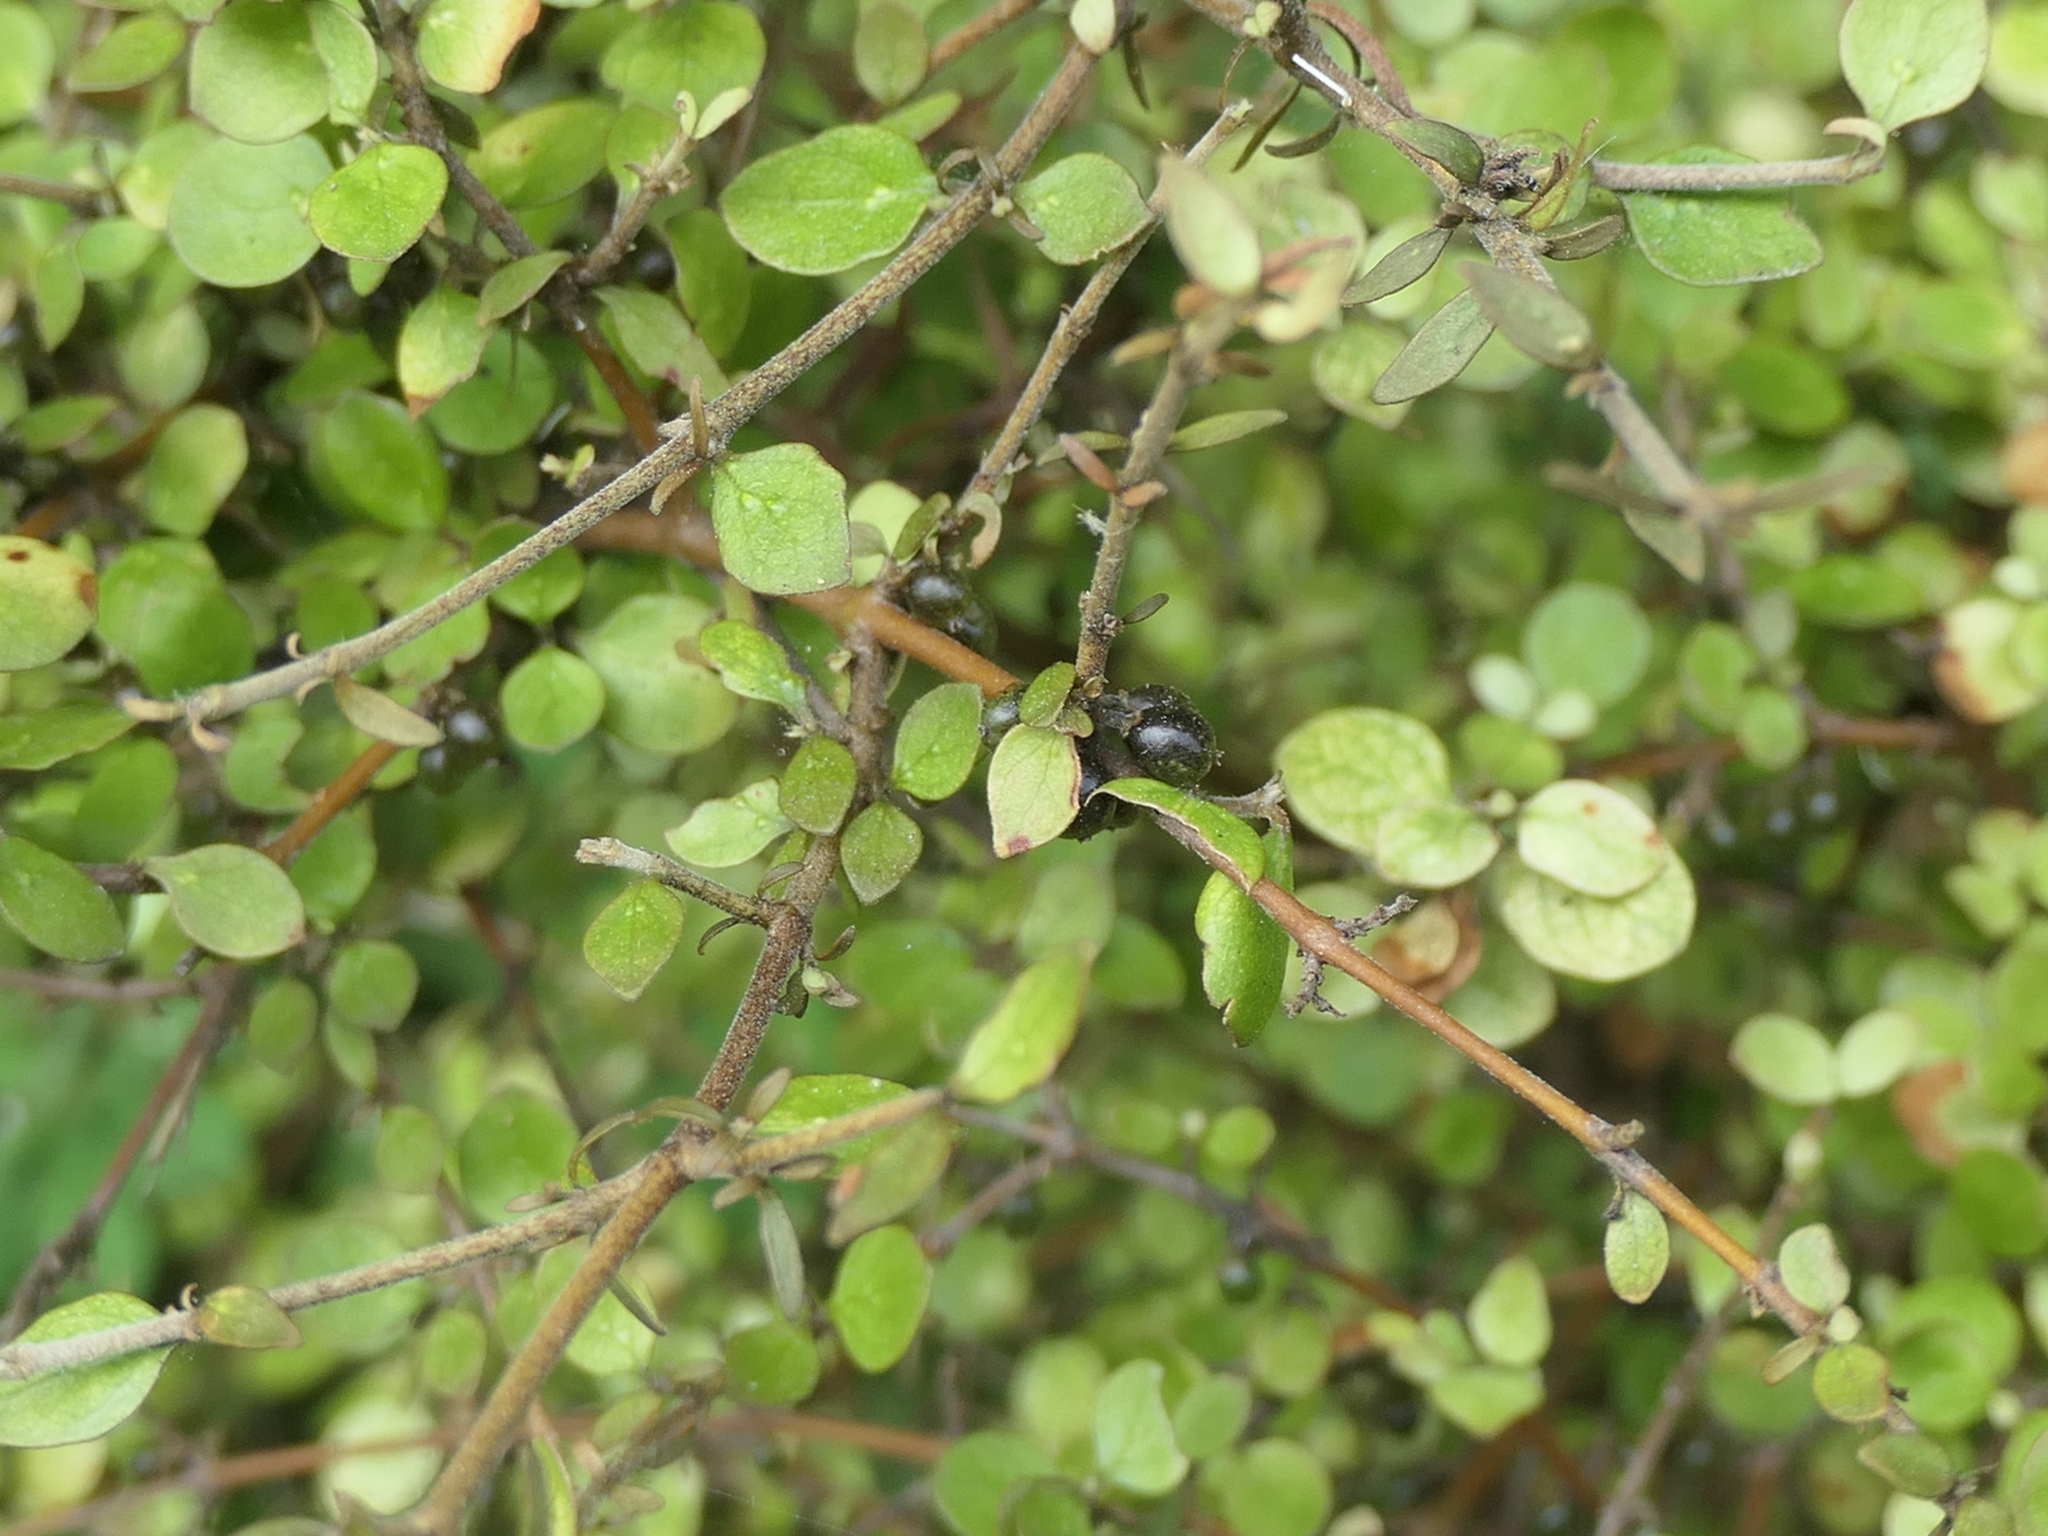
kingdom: Plantae
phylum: Tracheophyta
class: Magnoliopsida
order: Gentianales
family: Rubiaceae
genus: Coprosma
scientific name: Coprosma rhamnoides
